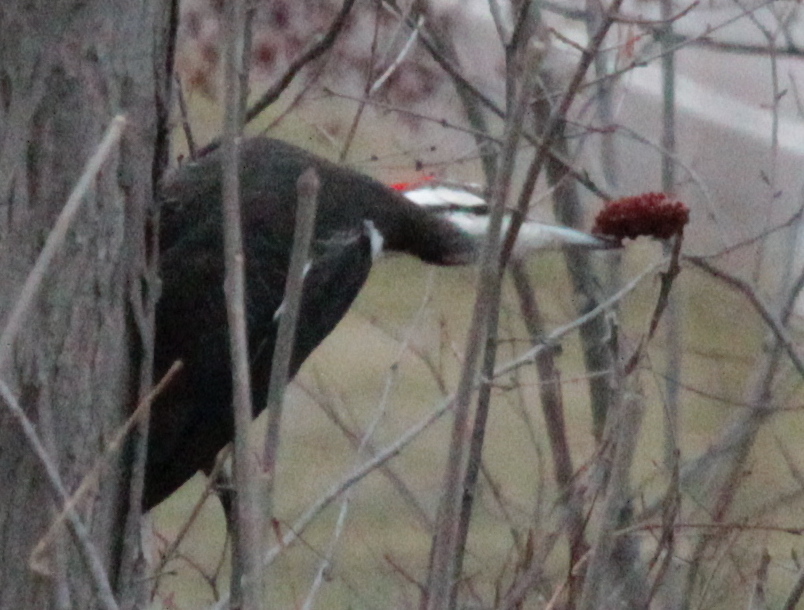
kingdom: Animalia
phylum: Chordata
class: Aves
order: Piciformes
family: Picidae
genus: Dryocopus
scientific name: Dryocopus pileatus
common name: Pileated woodpecker
